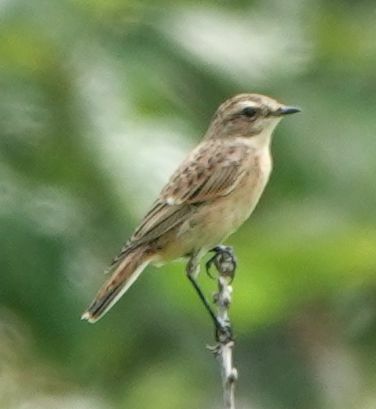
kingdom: Animalia
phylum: Chordata
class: Aves
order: Passeriformes
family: Muscicapidae
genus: Saxicola
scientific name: Saxicola rubetra
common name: Whinchat
